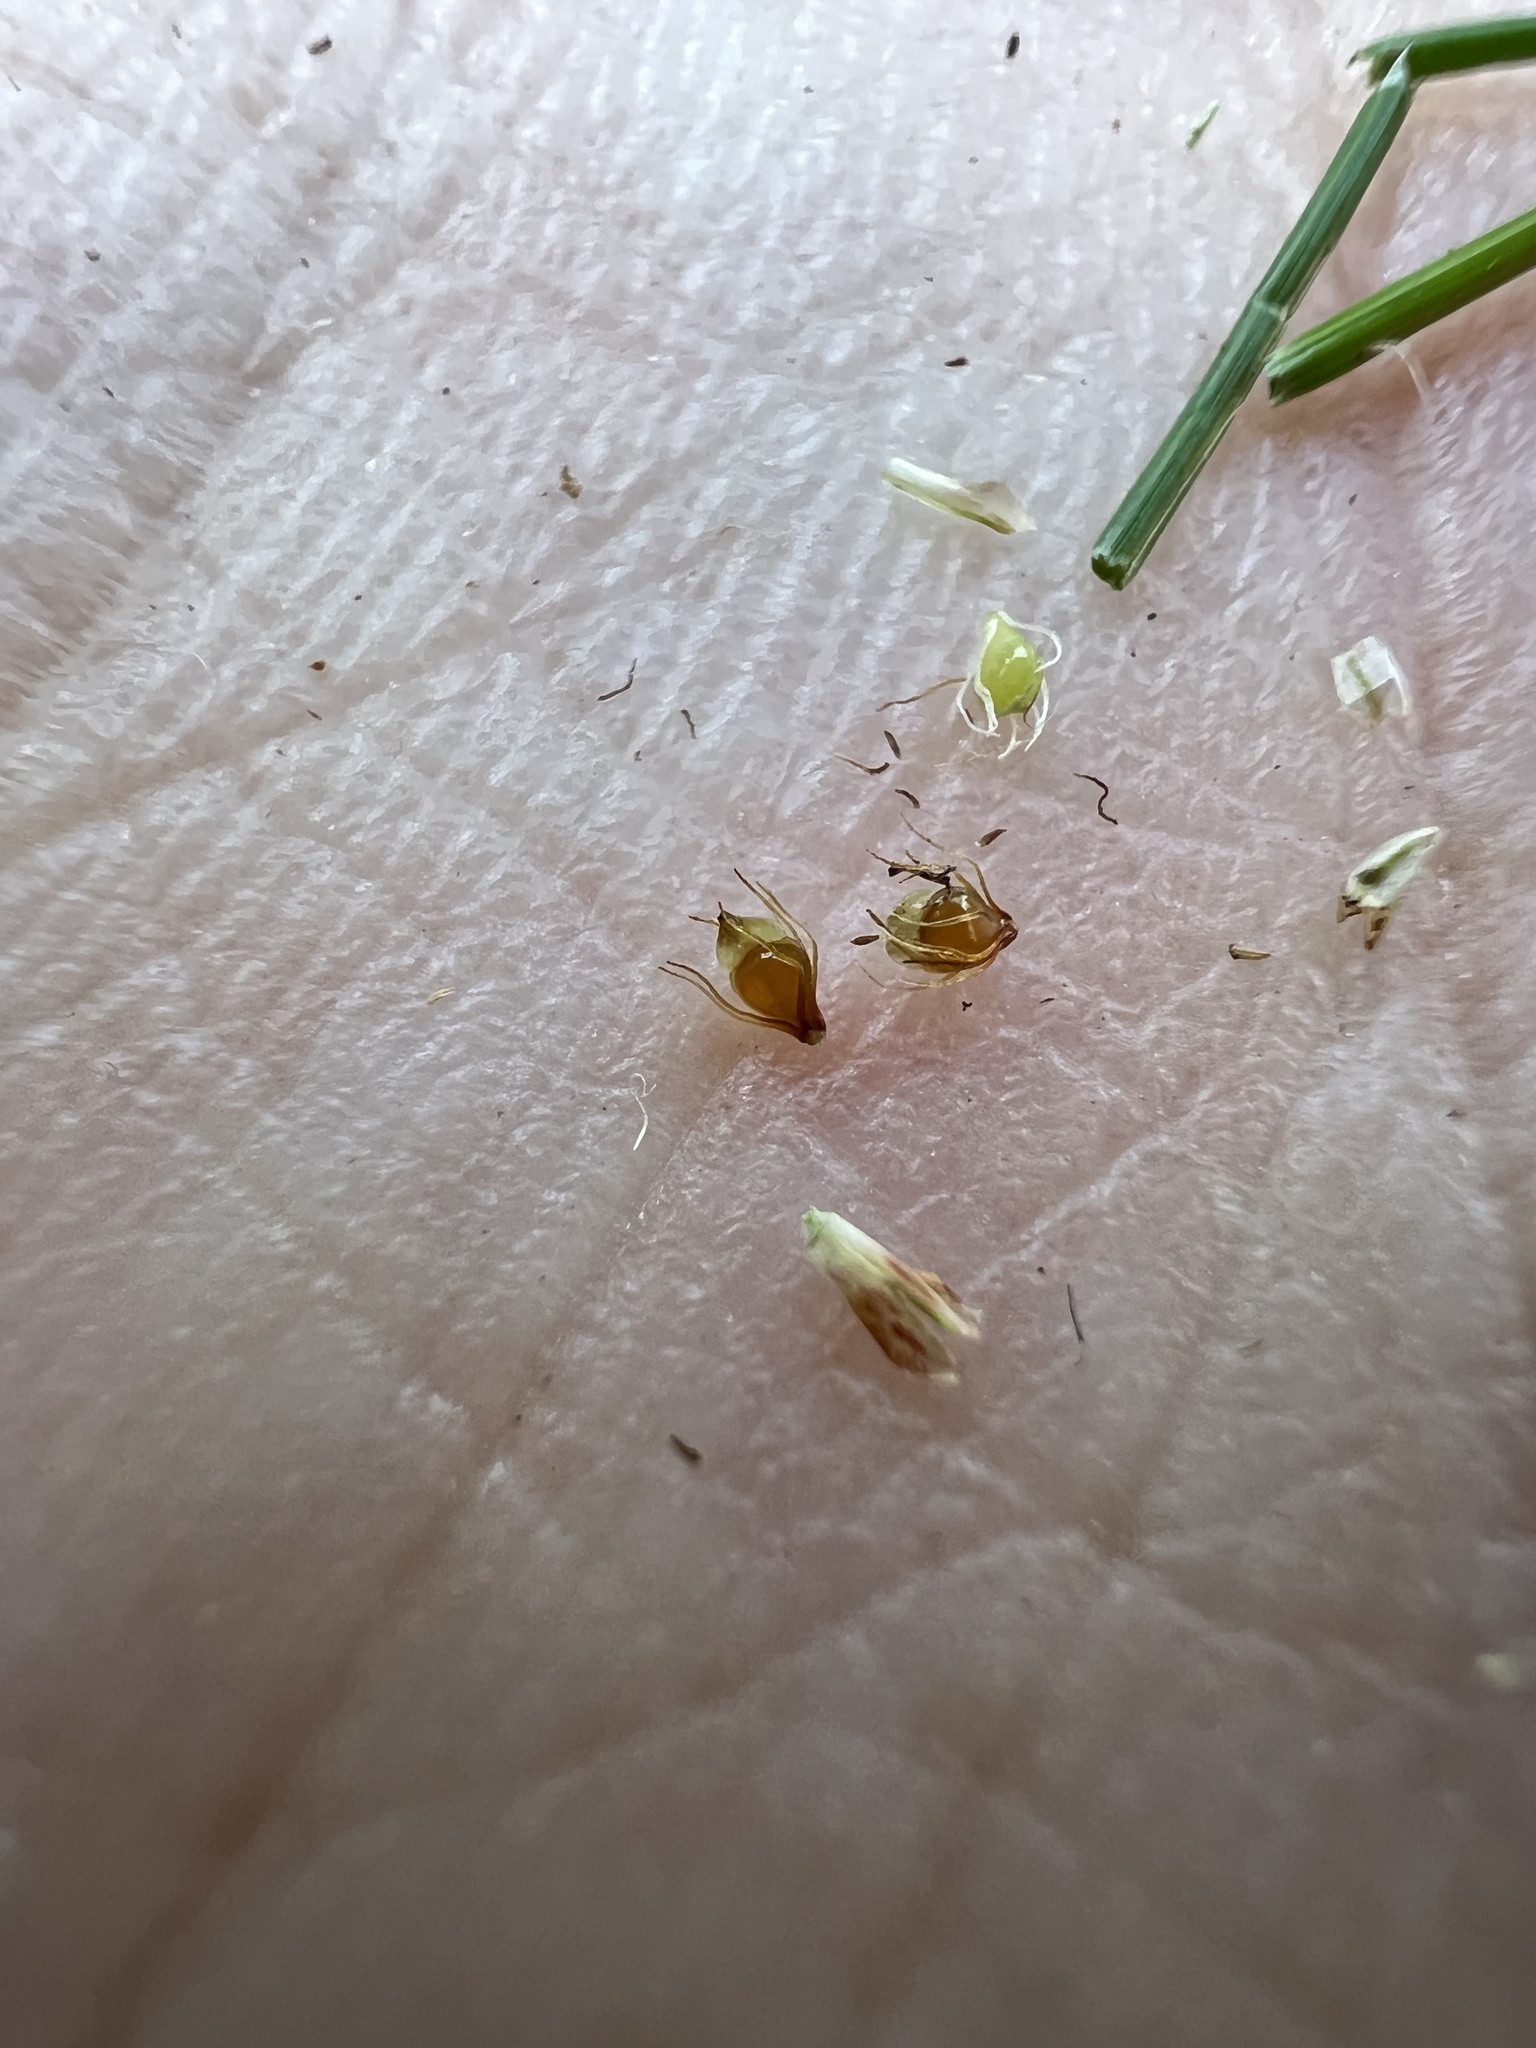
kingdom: Plantae
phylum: Tracheophyta
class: Liliopsida
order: Poales
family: Cyperaceae
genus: Eleocharis
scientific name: Eleocharis obtusa
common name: Blunt spikerush
